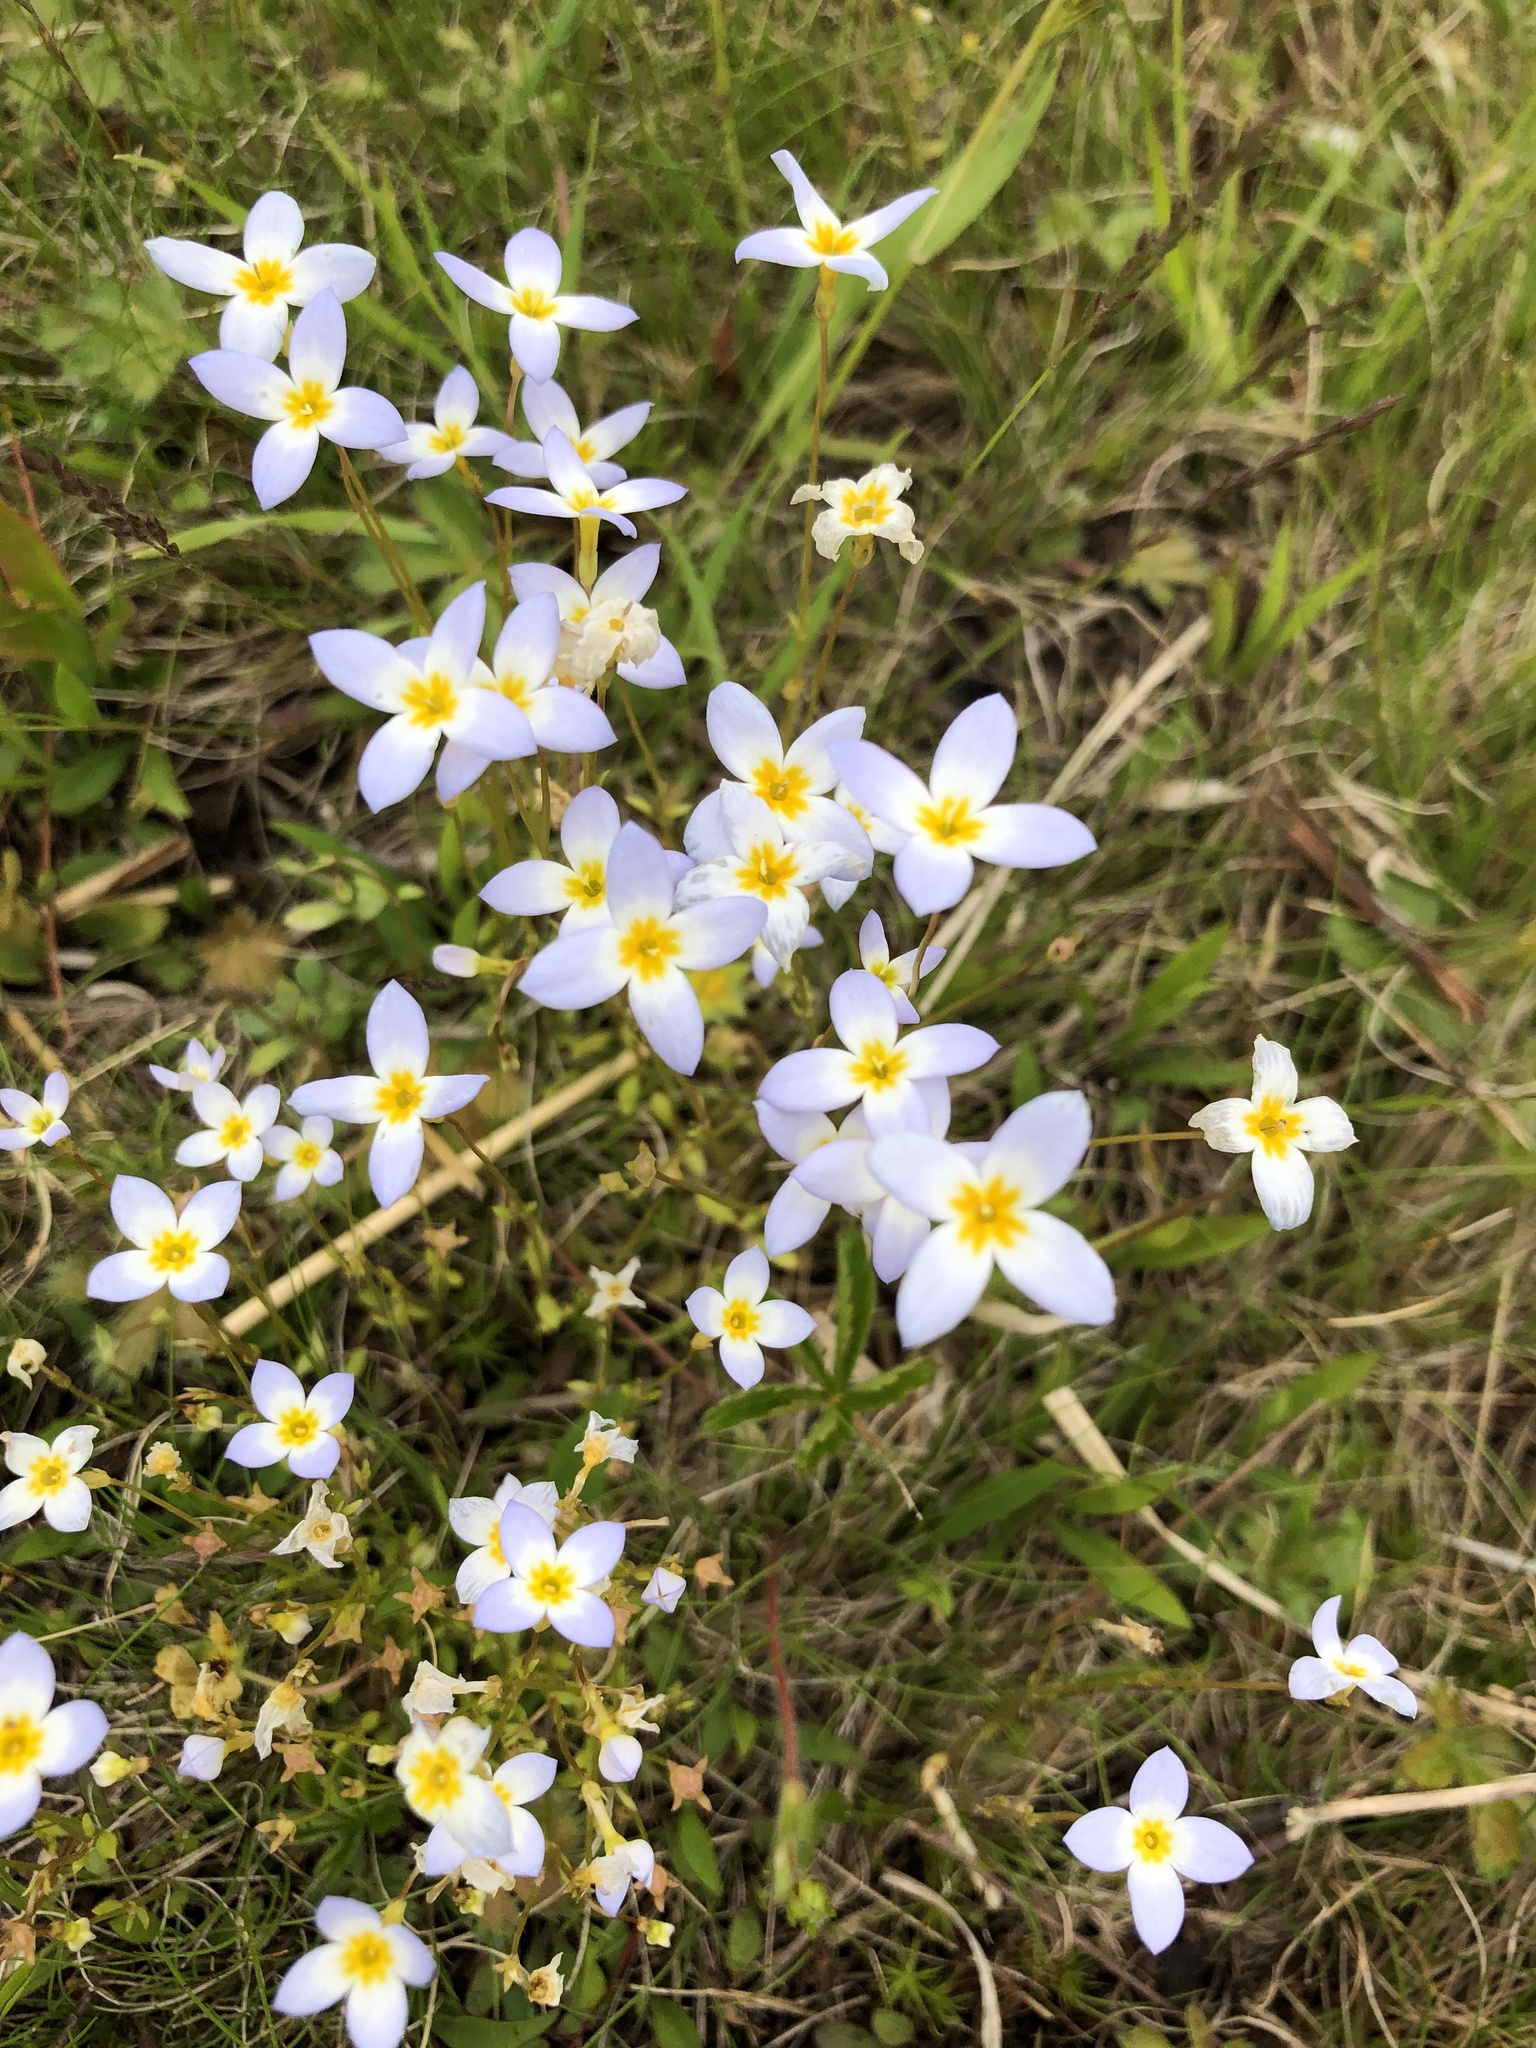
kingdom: Plantae
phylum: Tracheophyta
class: Magnoliopsida
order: Gentianales
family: Rubiaceae
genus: Houstonia
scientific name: Houstonia caerulea
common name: Bluets
